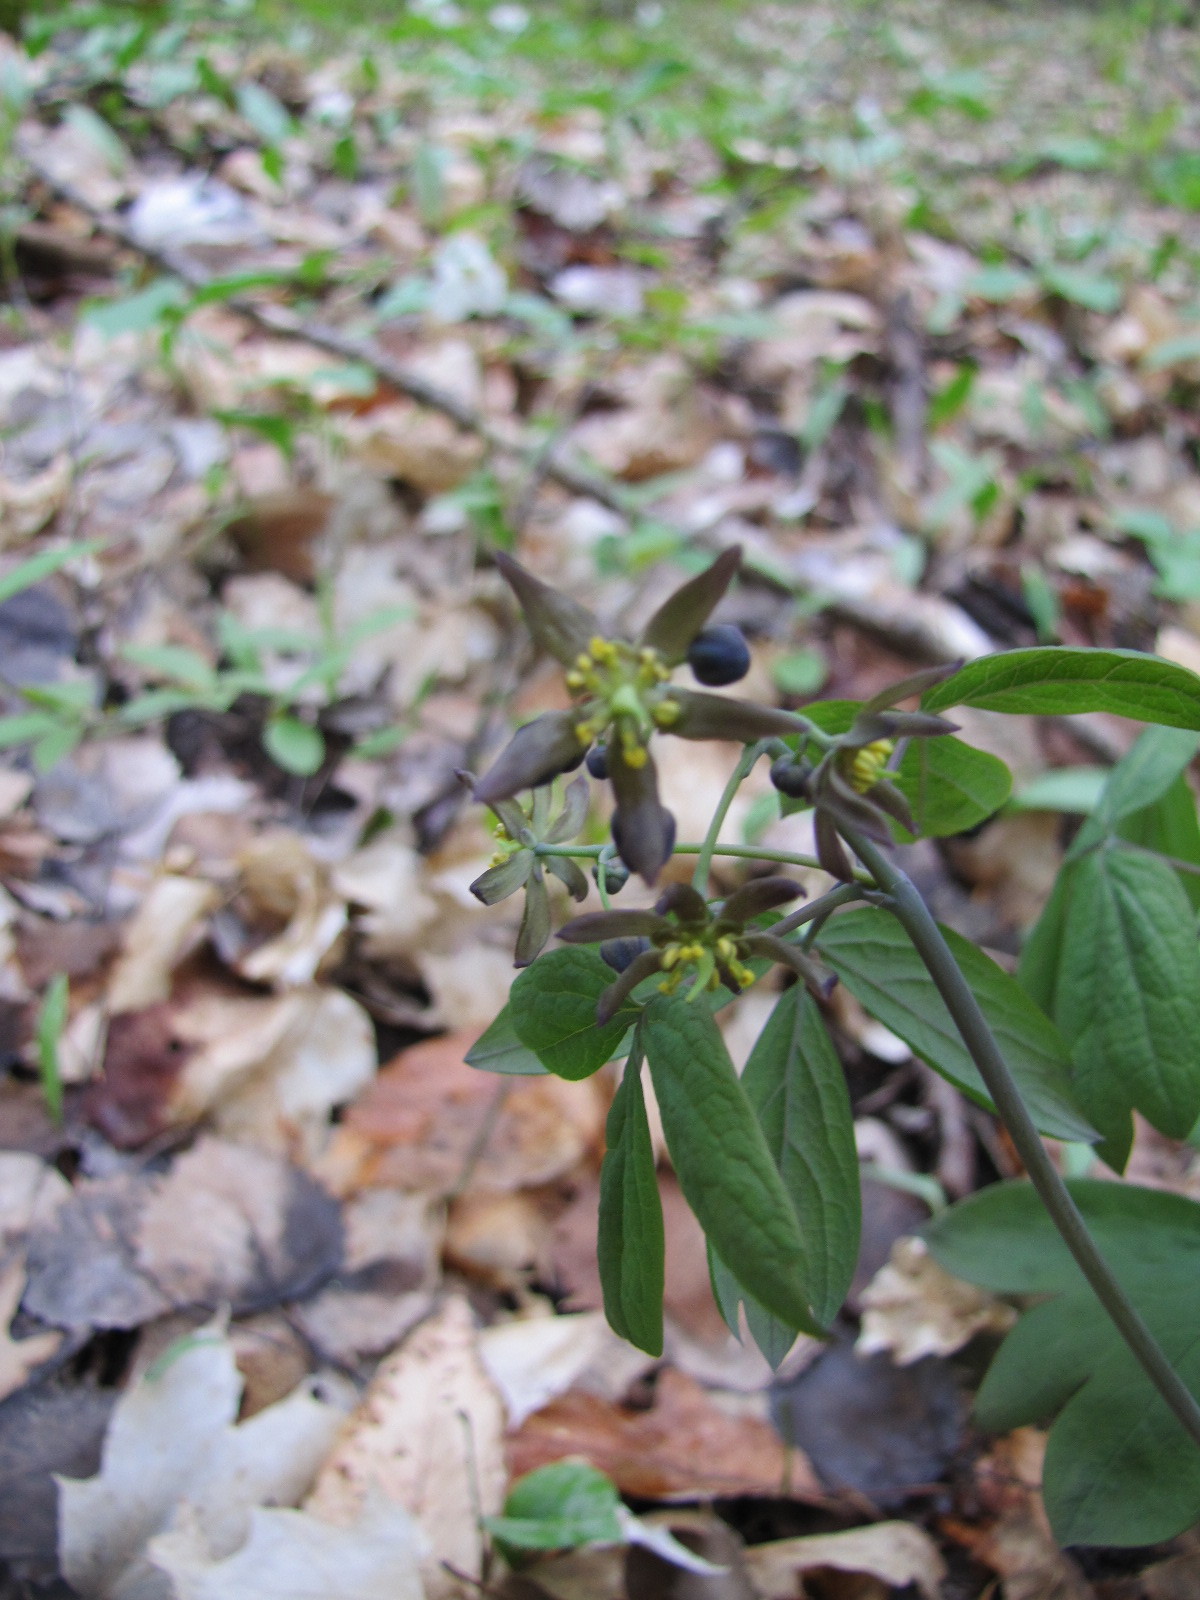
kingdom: Plantae
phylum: Tracheophyta
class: Magnoliopsida
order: Ranunculales
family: Berberidaceae
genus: Caulophyllum
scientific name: Caulophyllum giganteum
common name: Blue cohosh
